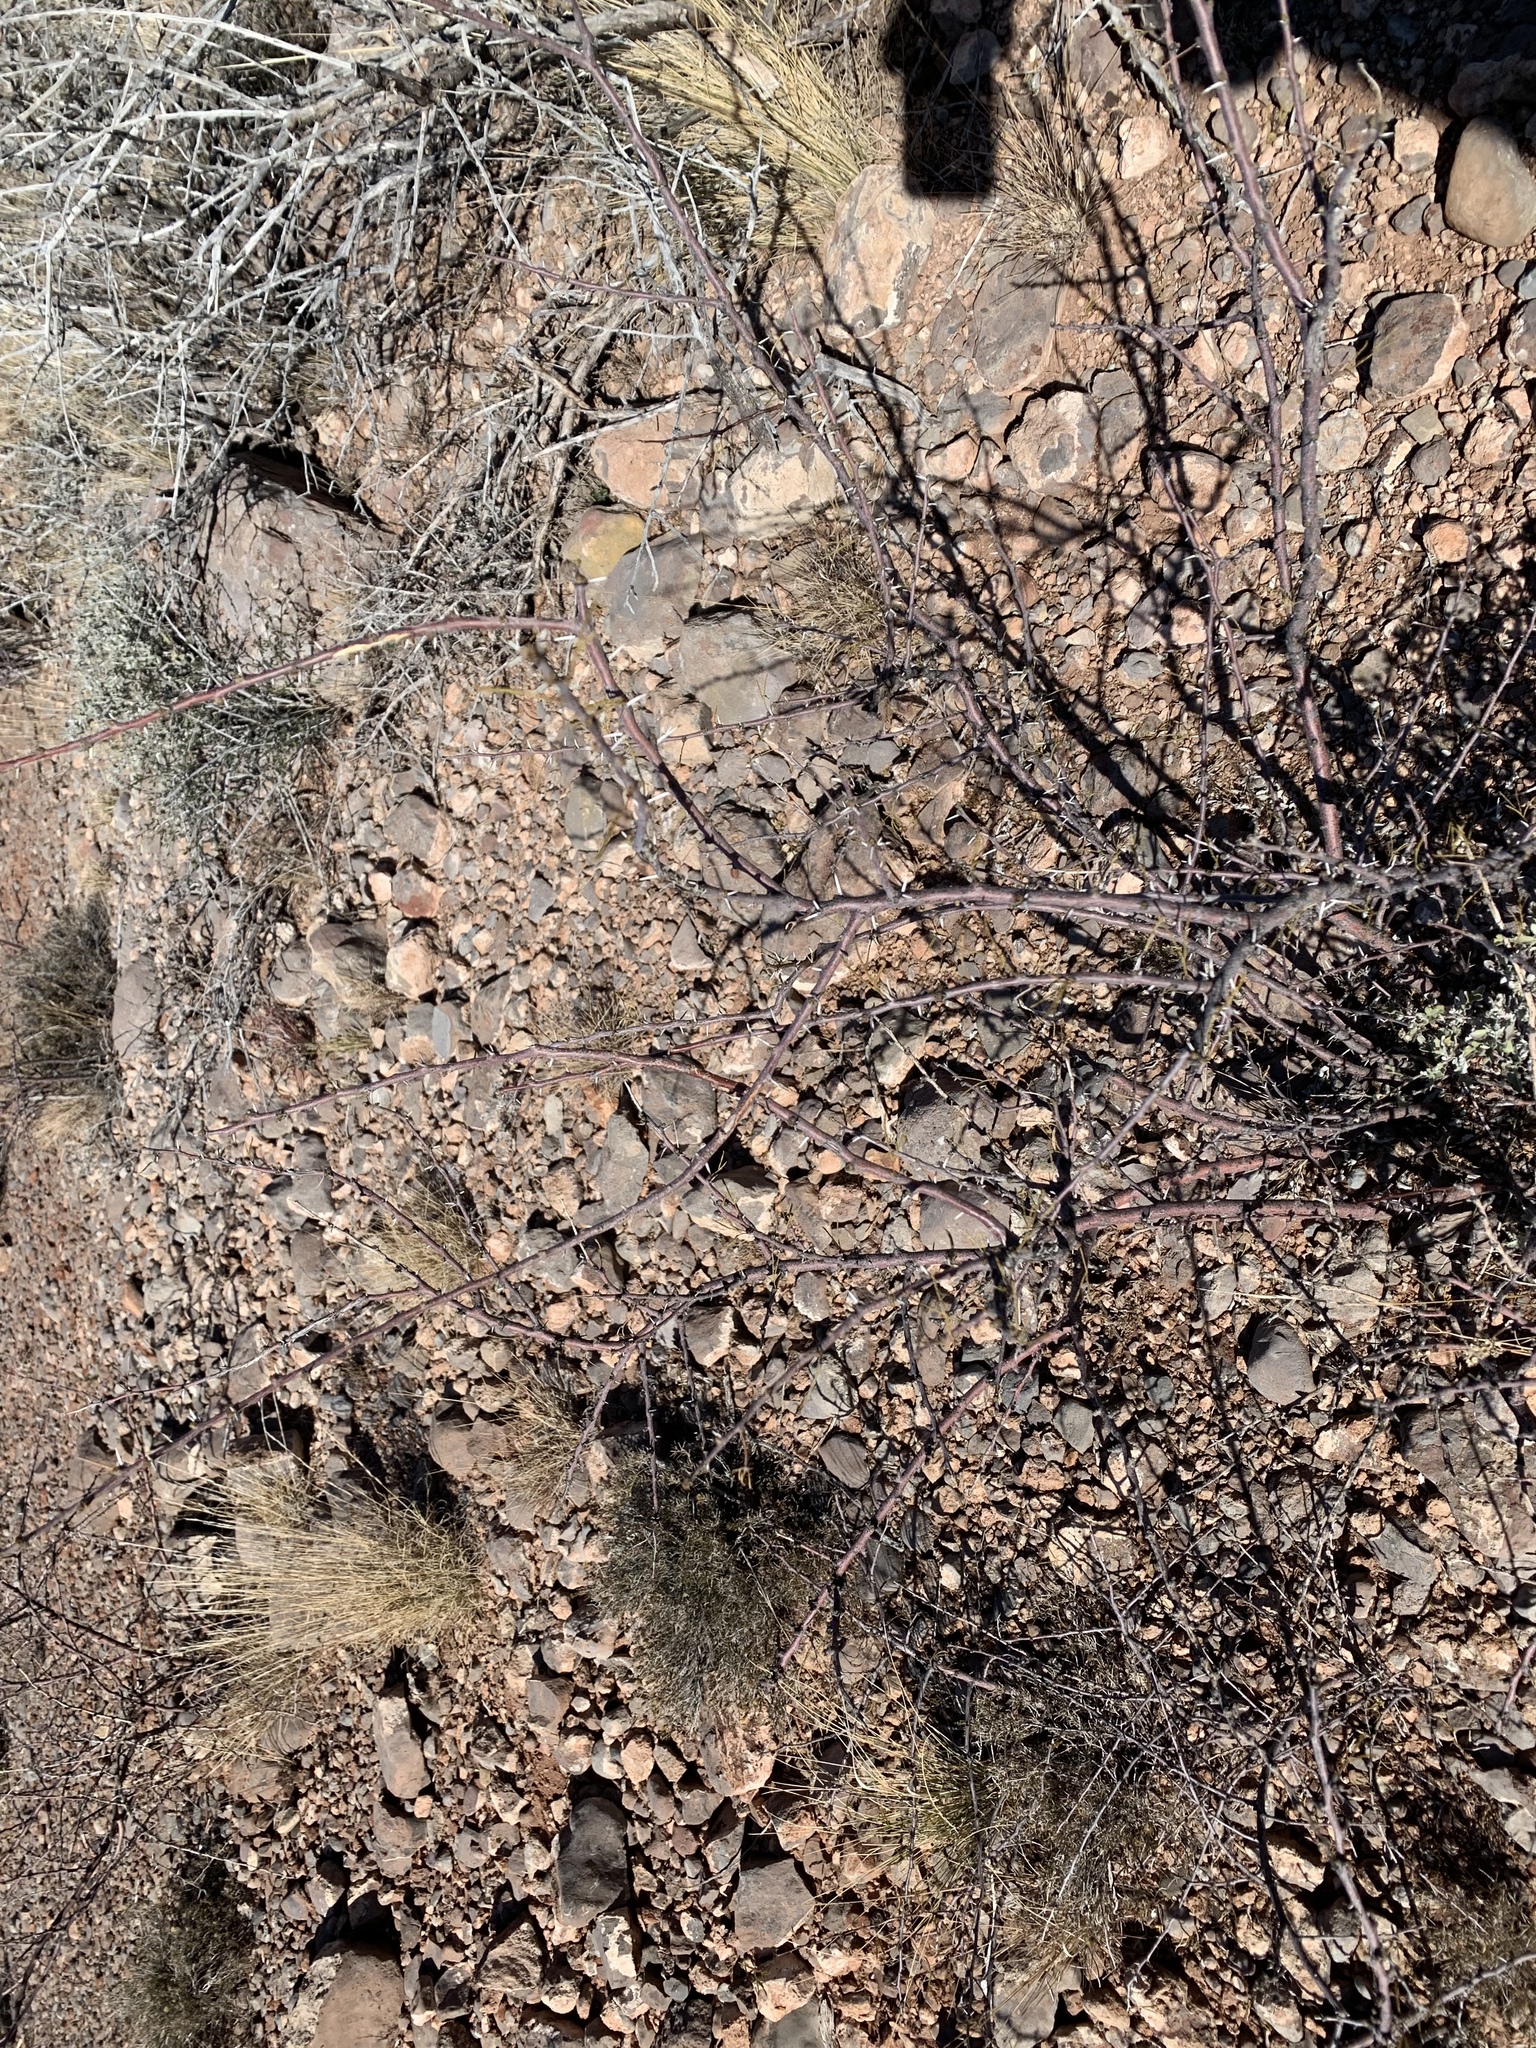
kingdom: Plantae
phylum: Tracheophyta
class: Magnoliopsida
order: Fabales
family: Fabaceae
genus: Vachellia
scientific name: Vachellia constricta
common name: Mescat acacia
